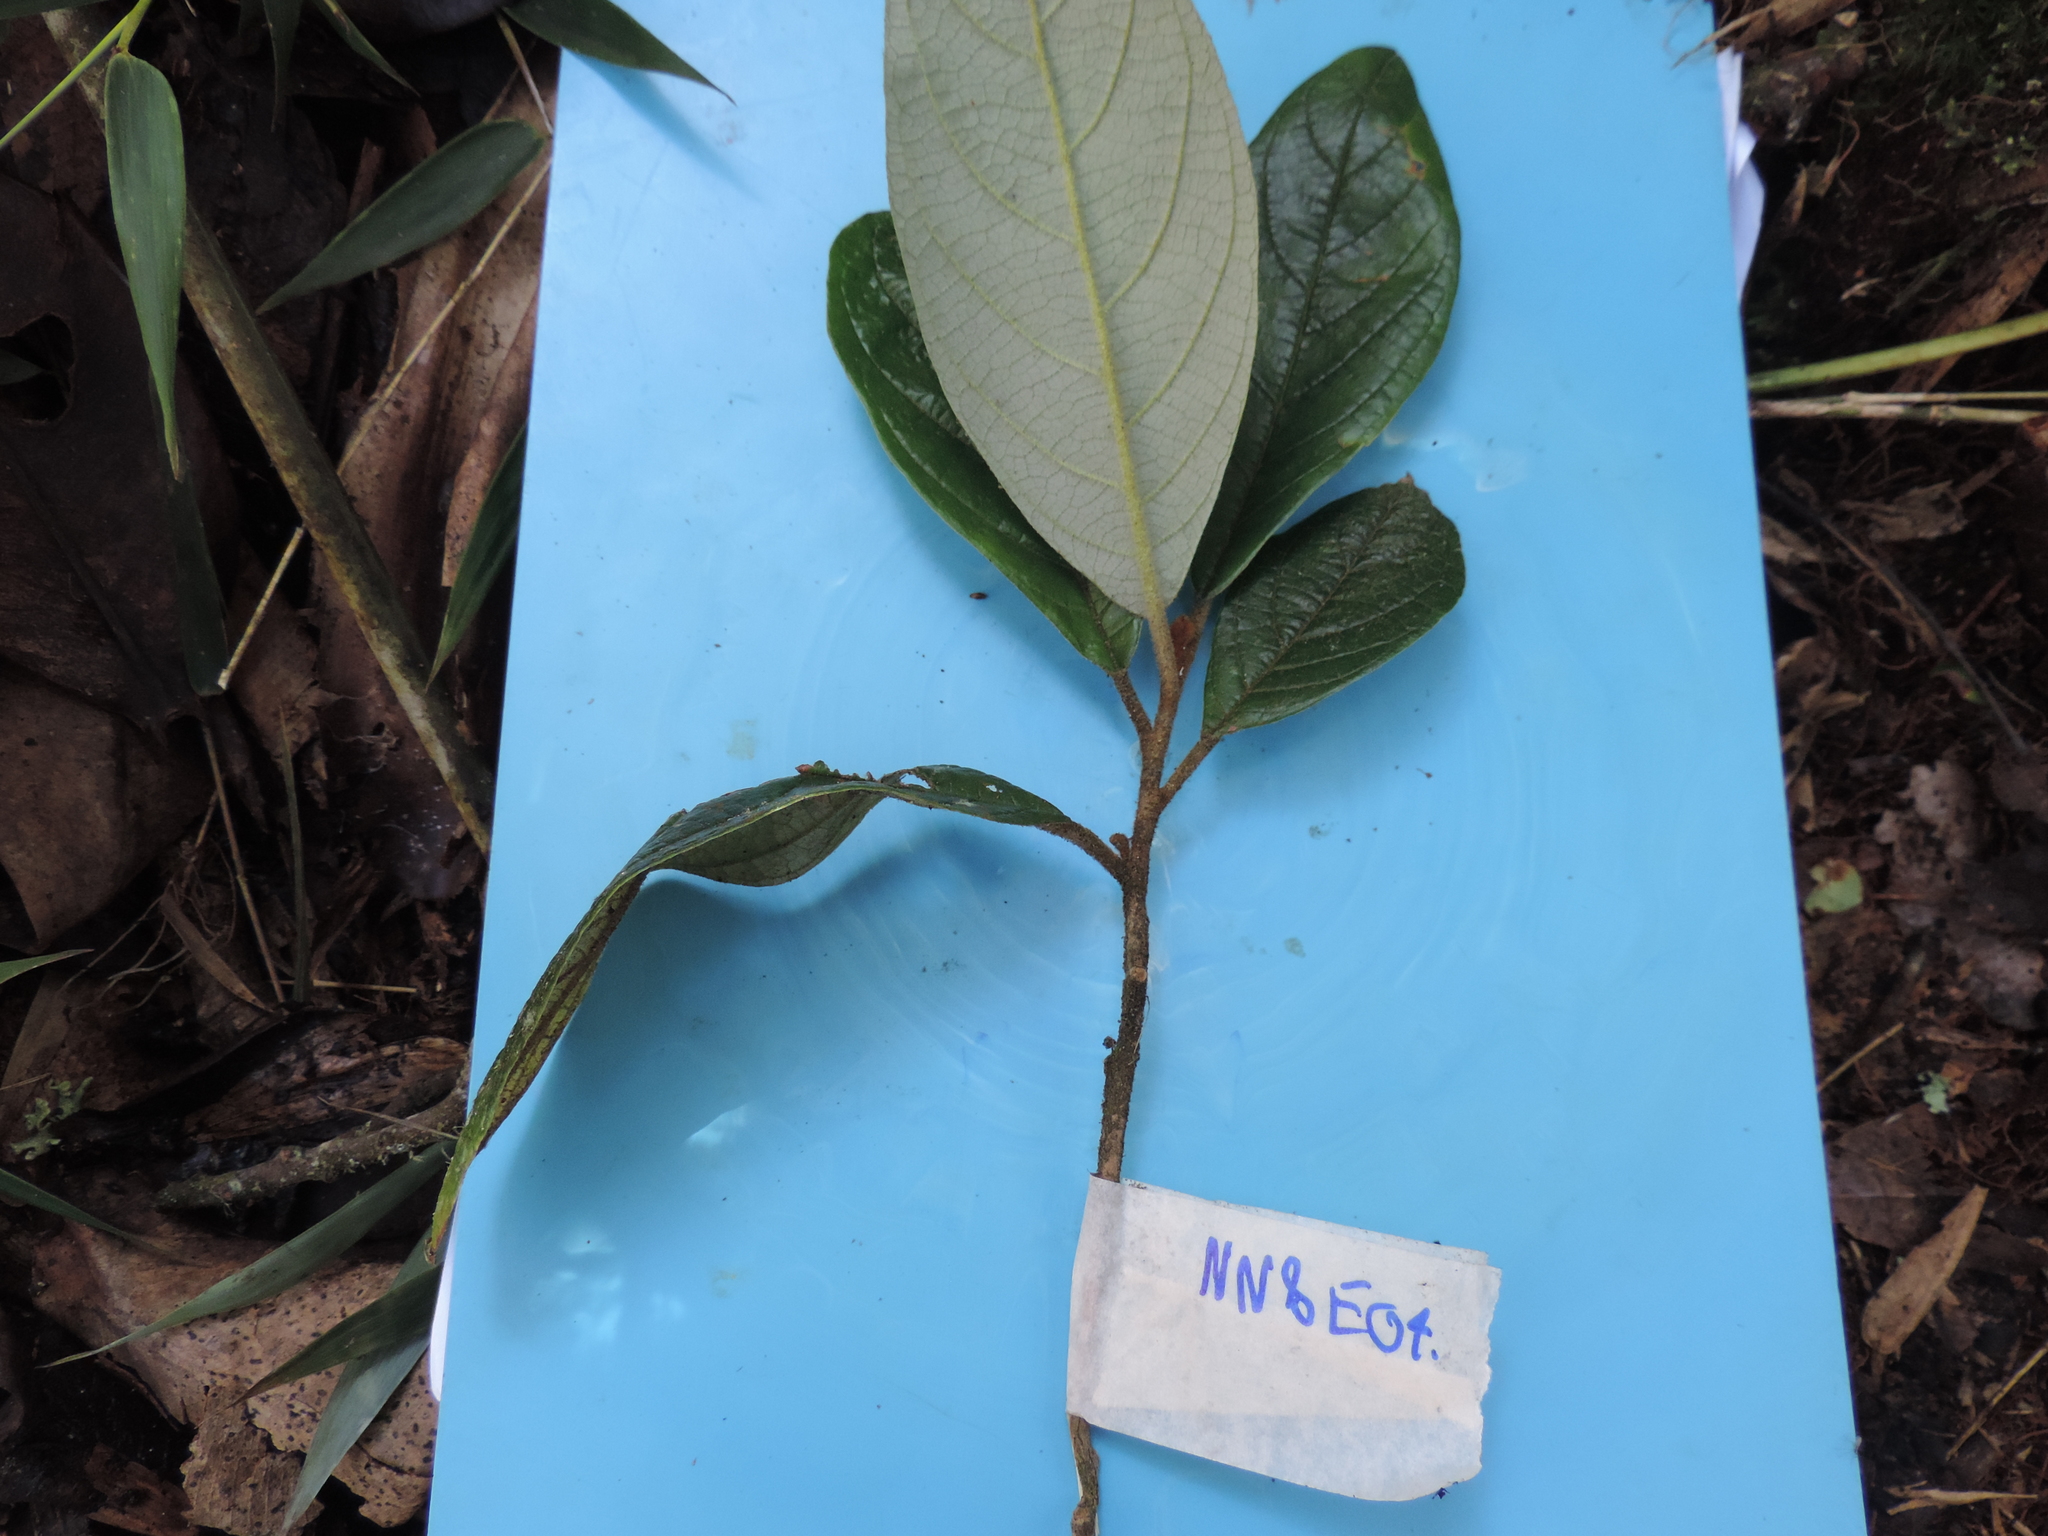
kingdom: Plantae
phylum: Tracheophyta
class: Magnoliopsida
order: Asterales
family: Asteraceae
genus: Critoniopsis
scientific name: Critoniopsis lindenii
